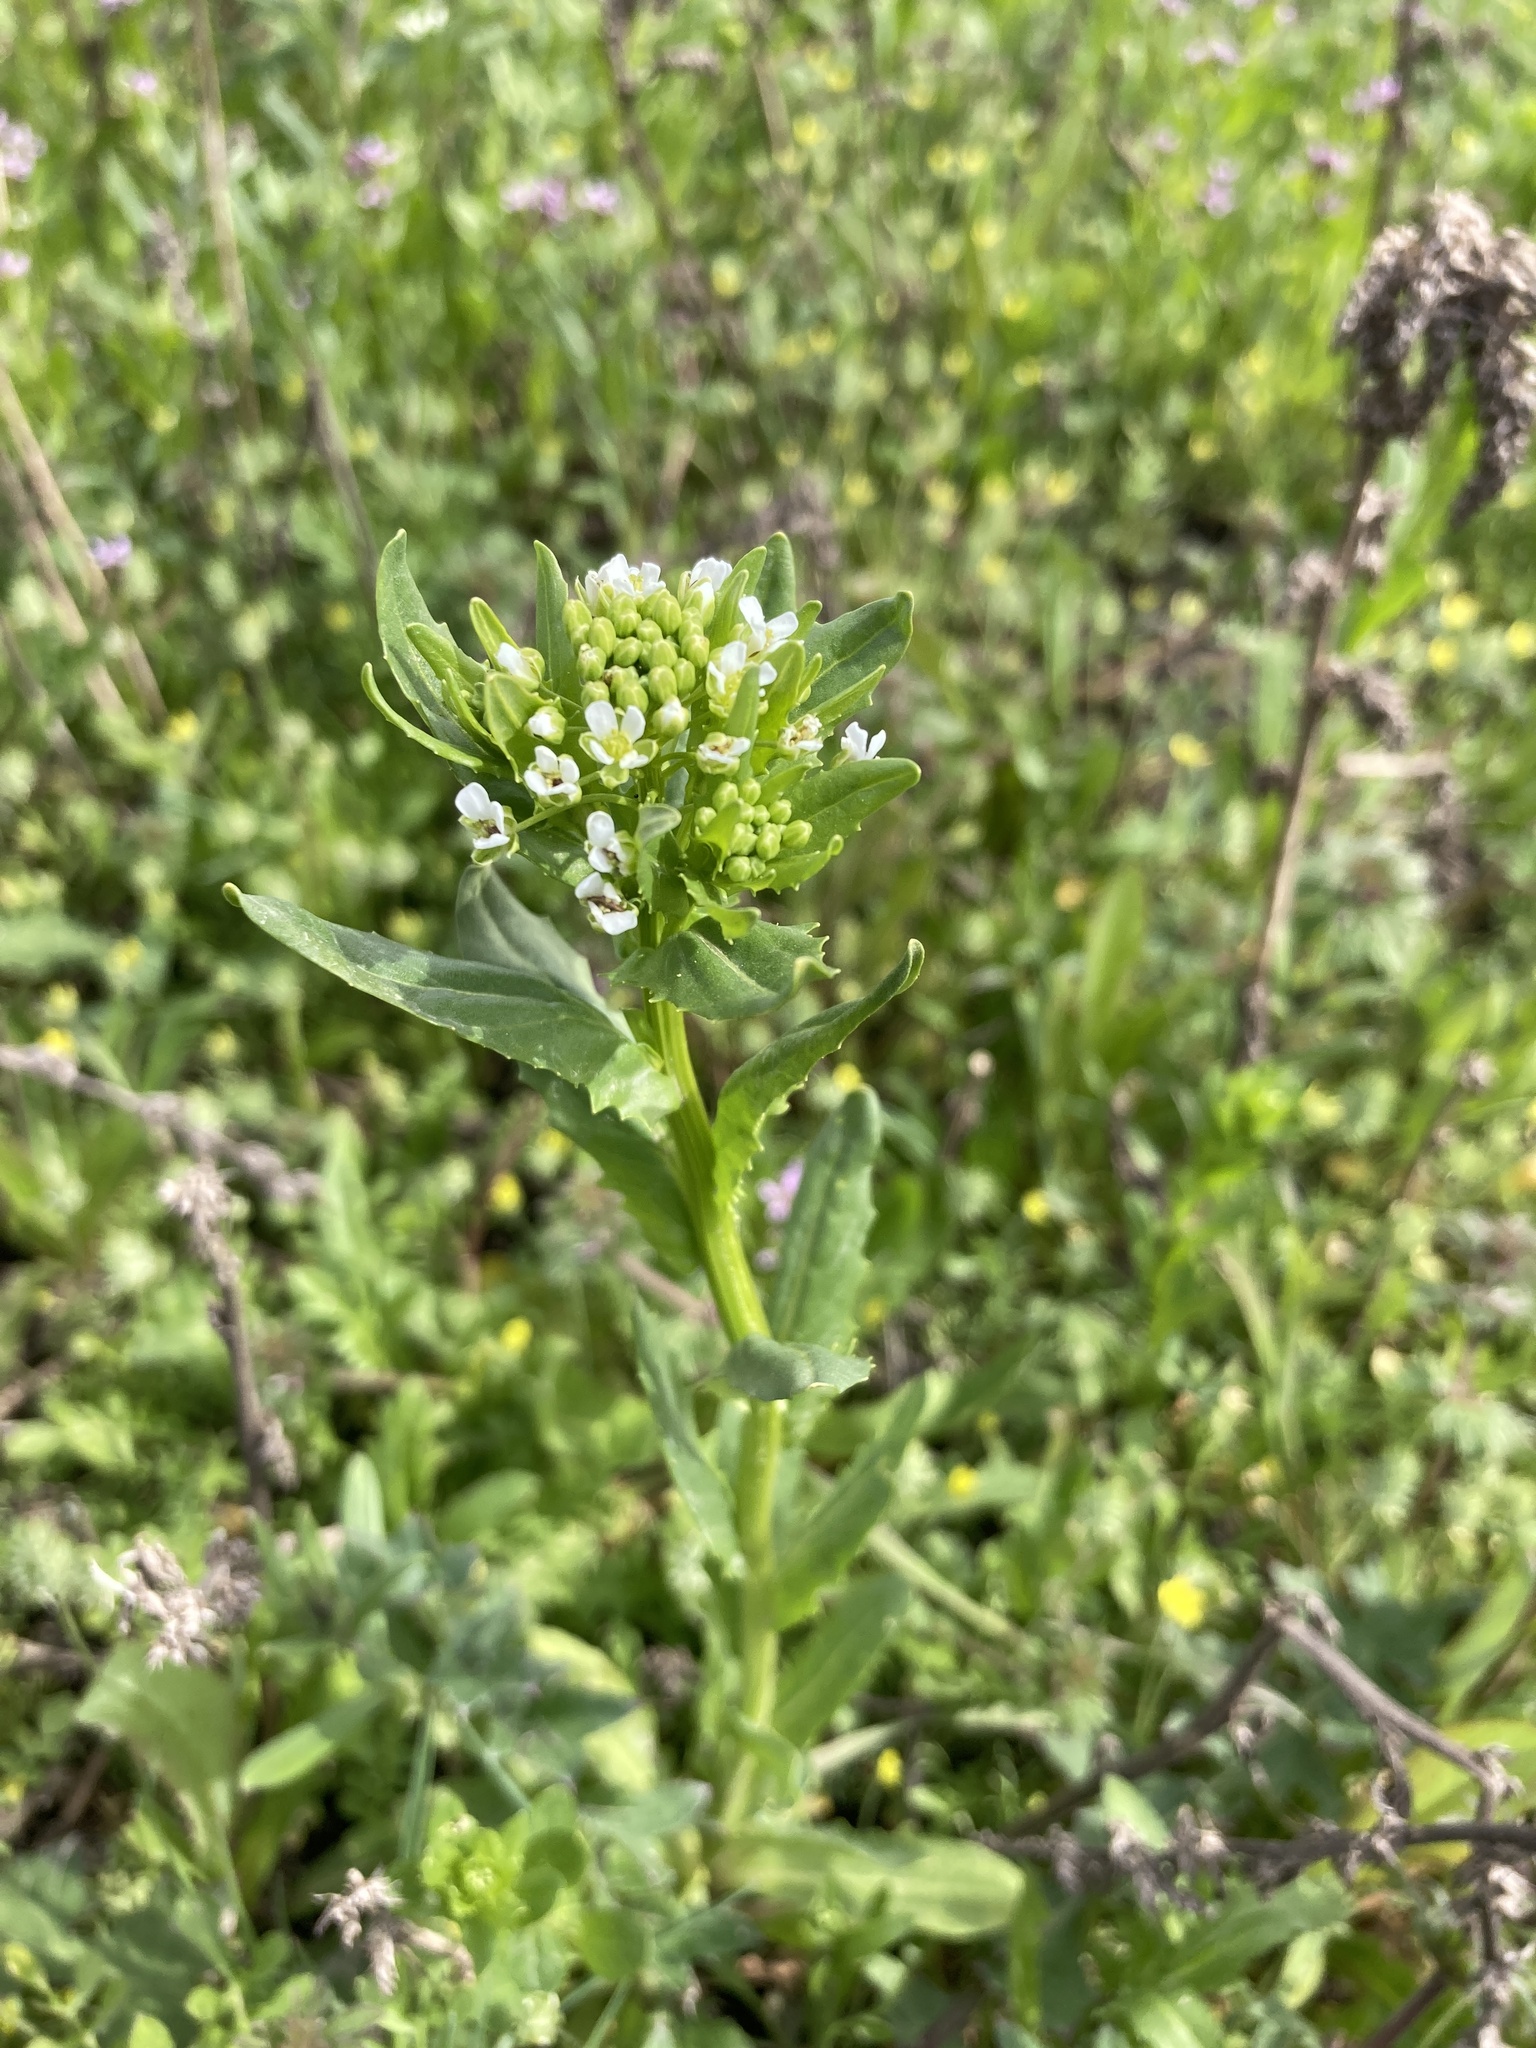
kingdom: Plantae
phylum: Tracheophyta
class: Magnoliopsida
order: Brassicales
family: Brassicaceae
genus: Thlaspi
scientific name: Thlaspi arvense
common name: Field pennycress
